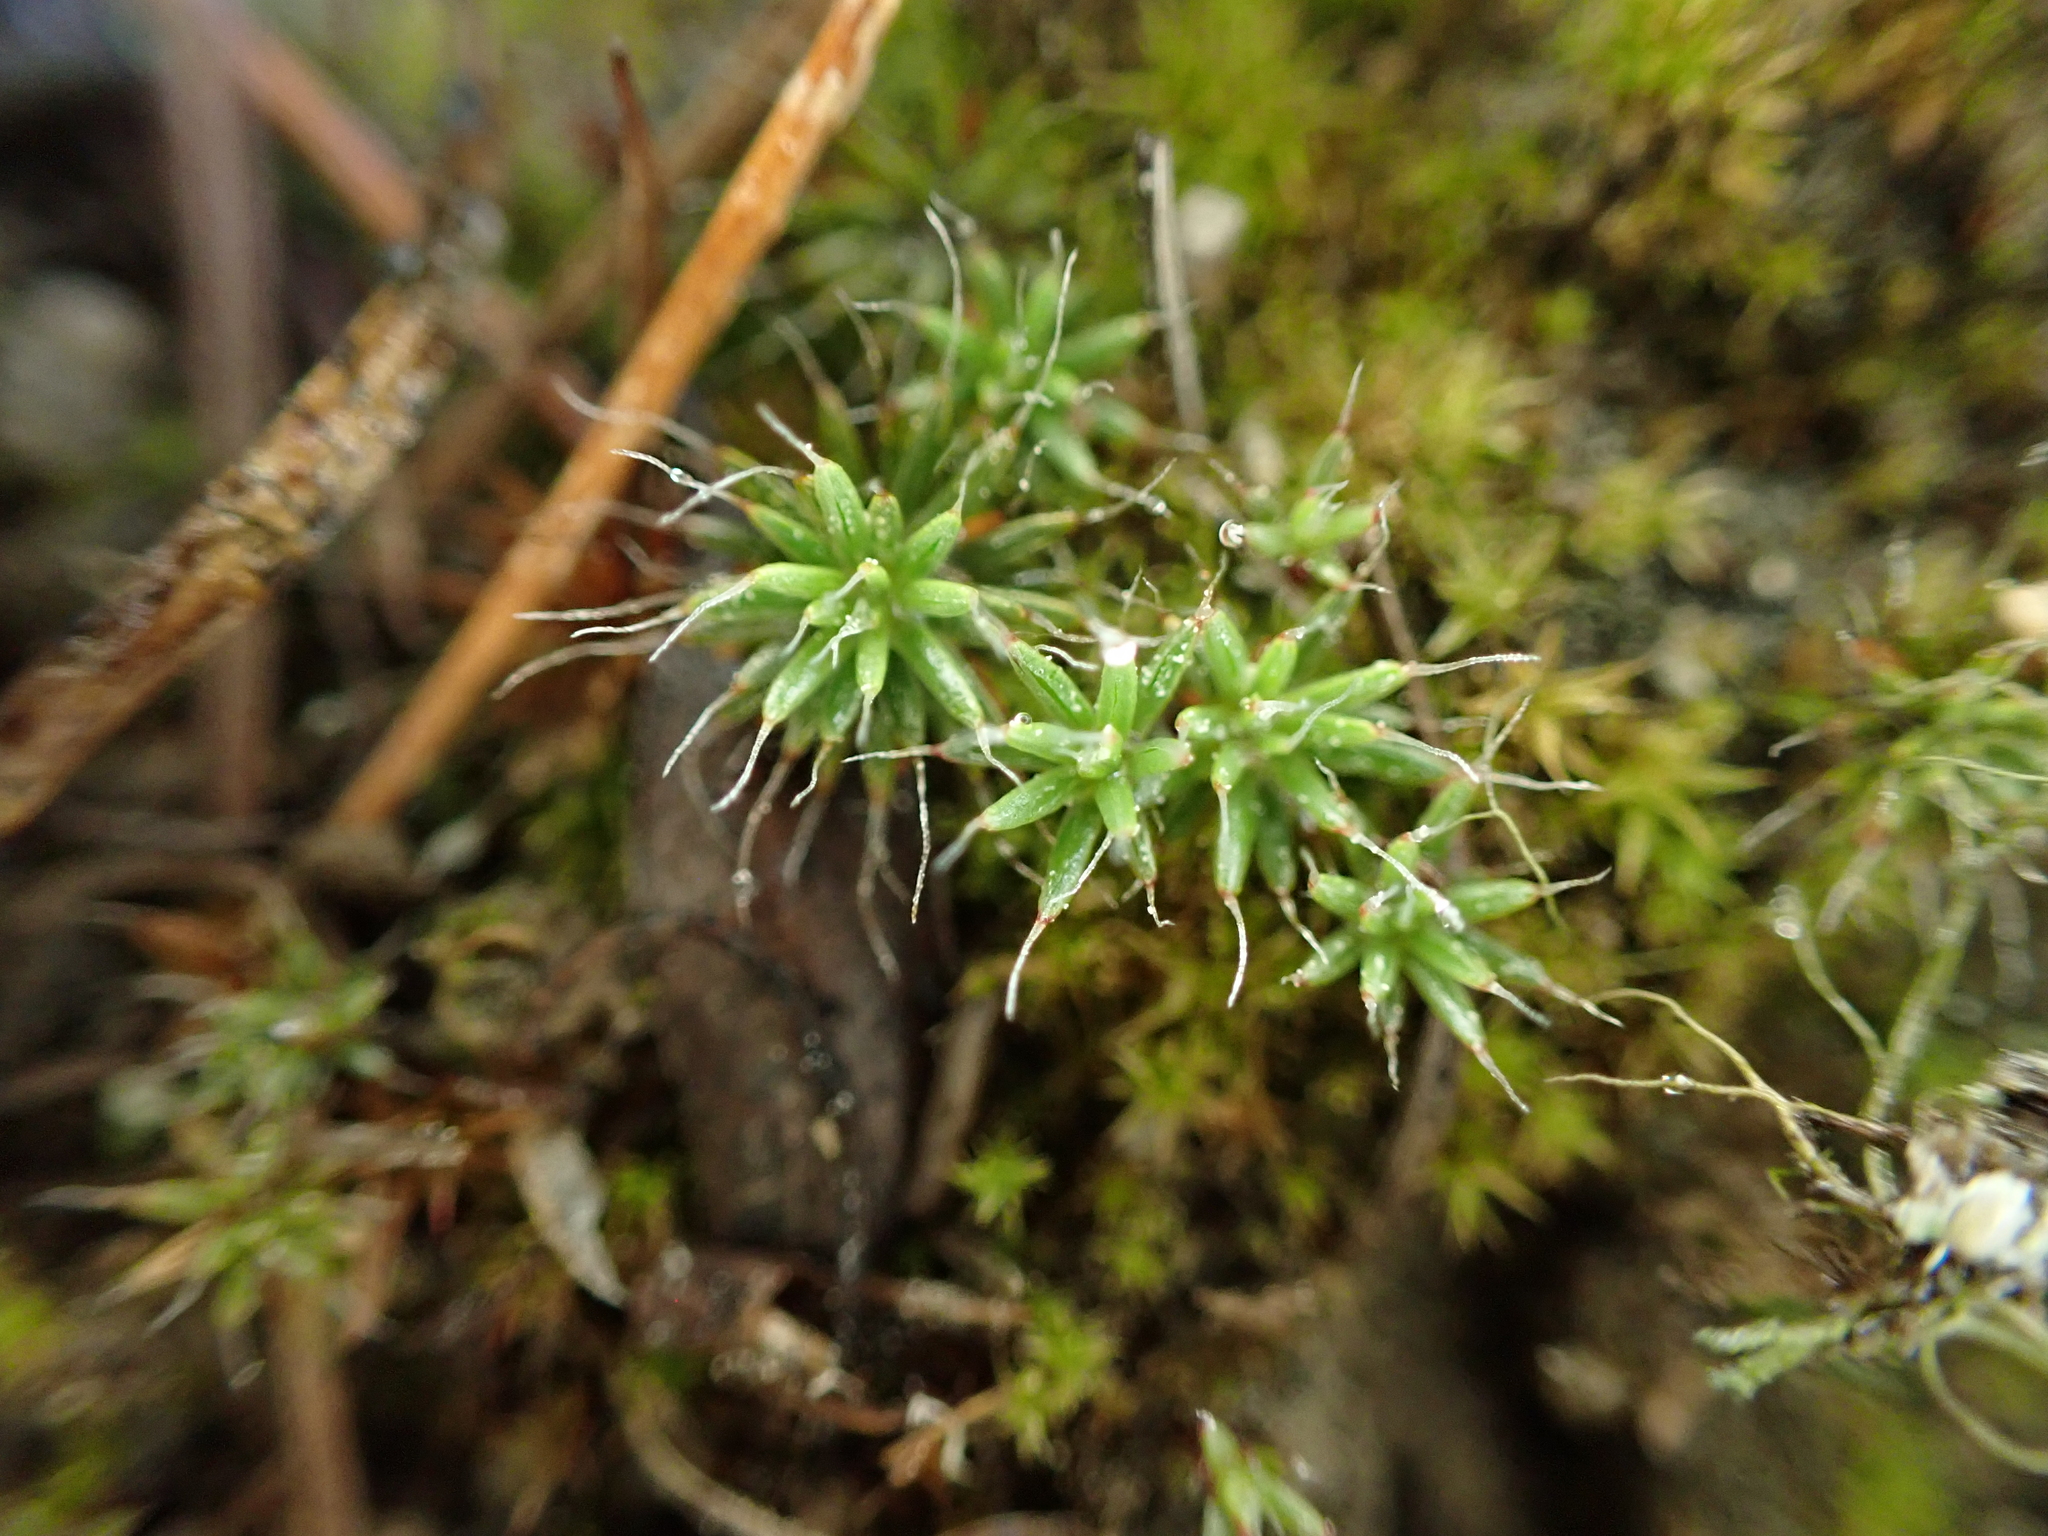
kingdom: Plantae
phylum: Bryophyta
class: Polytrichopsida
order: Polytrichales
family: Polytrichaceae
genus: Polytrichum
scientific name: Polytrichum piliferum
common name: Bristly haircap
